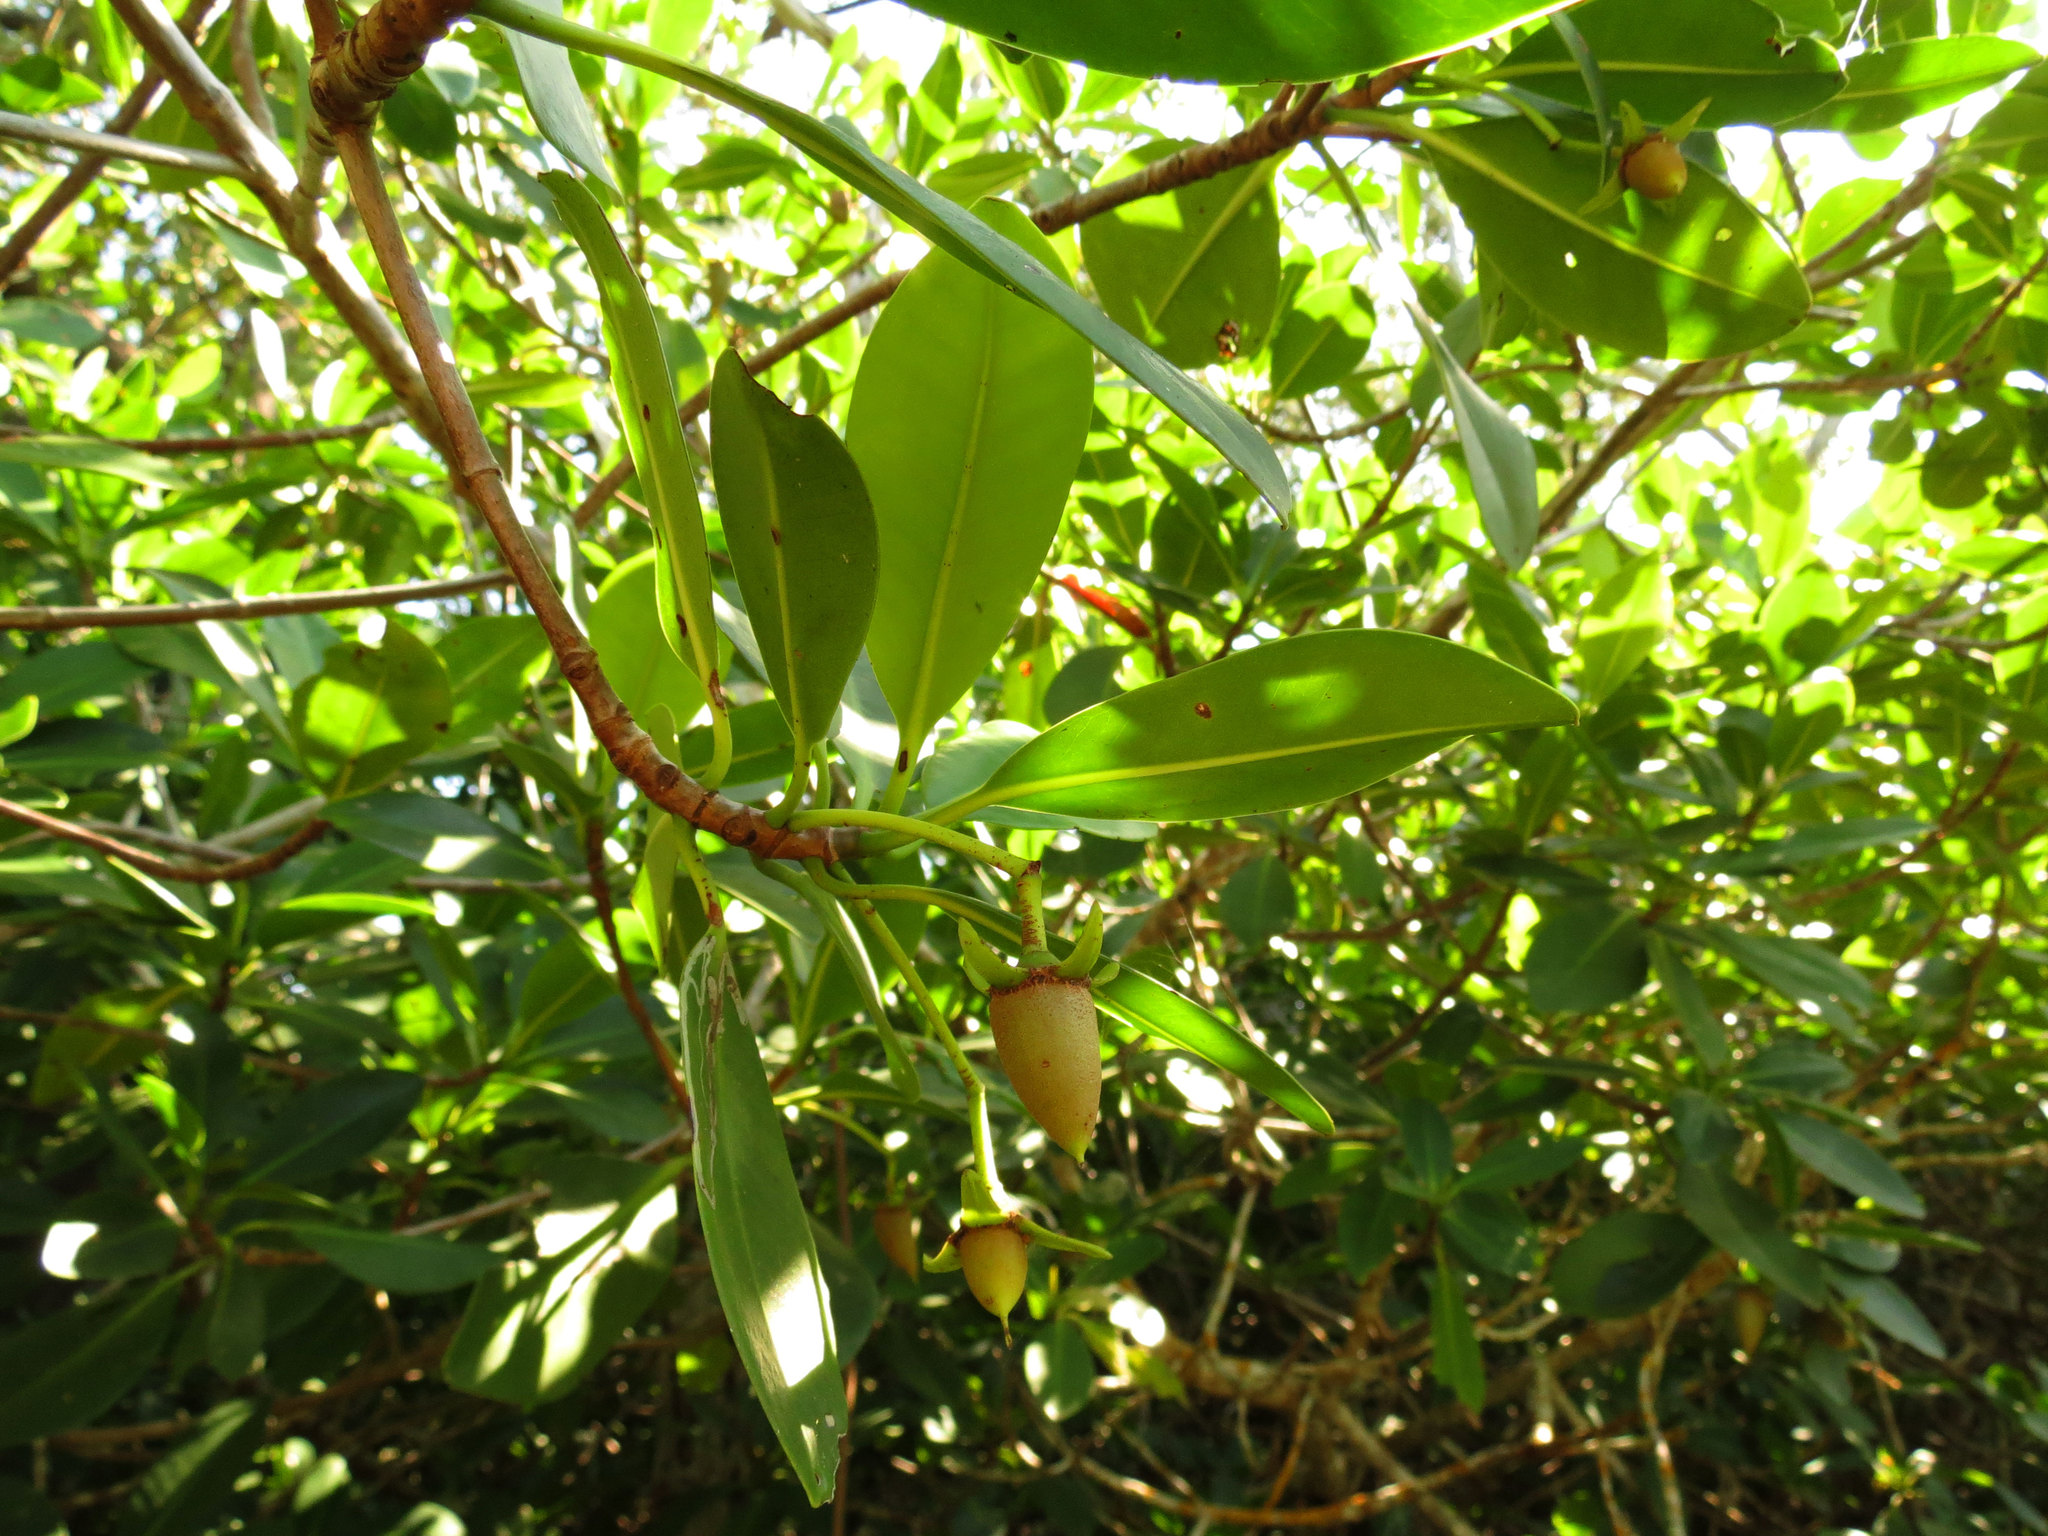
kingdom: Plantae
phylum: Tracheophyta
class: Magnoliopsida
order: Malpighiales
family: Rhizophoraceae
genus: Rhizophora
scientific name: Rhizophora mangle
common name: Red mangrove
